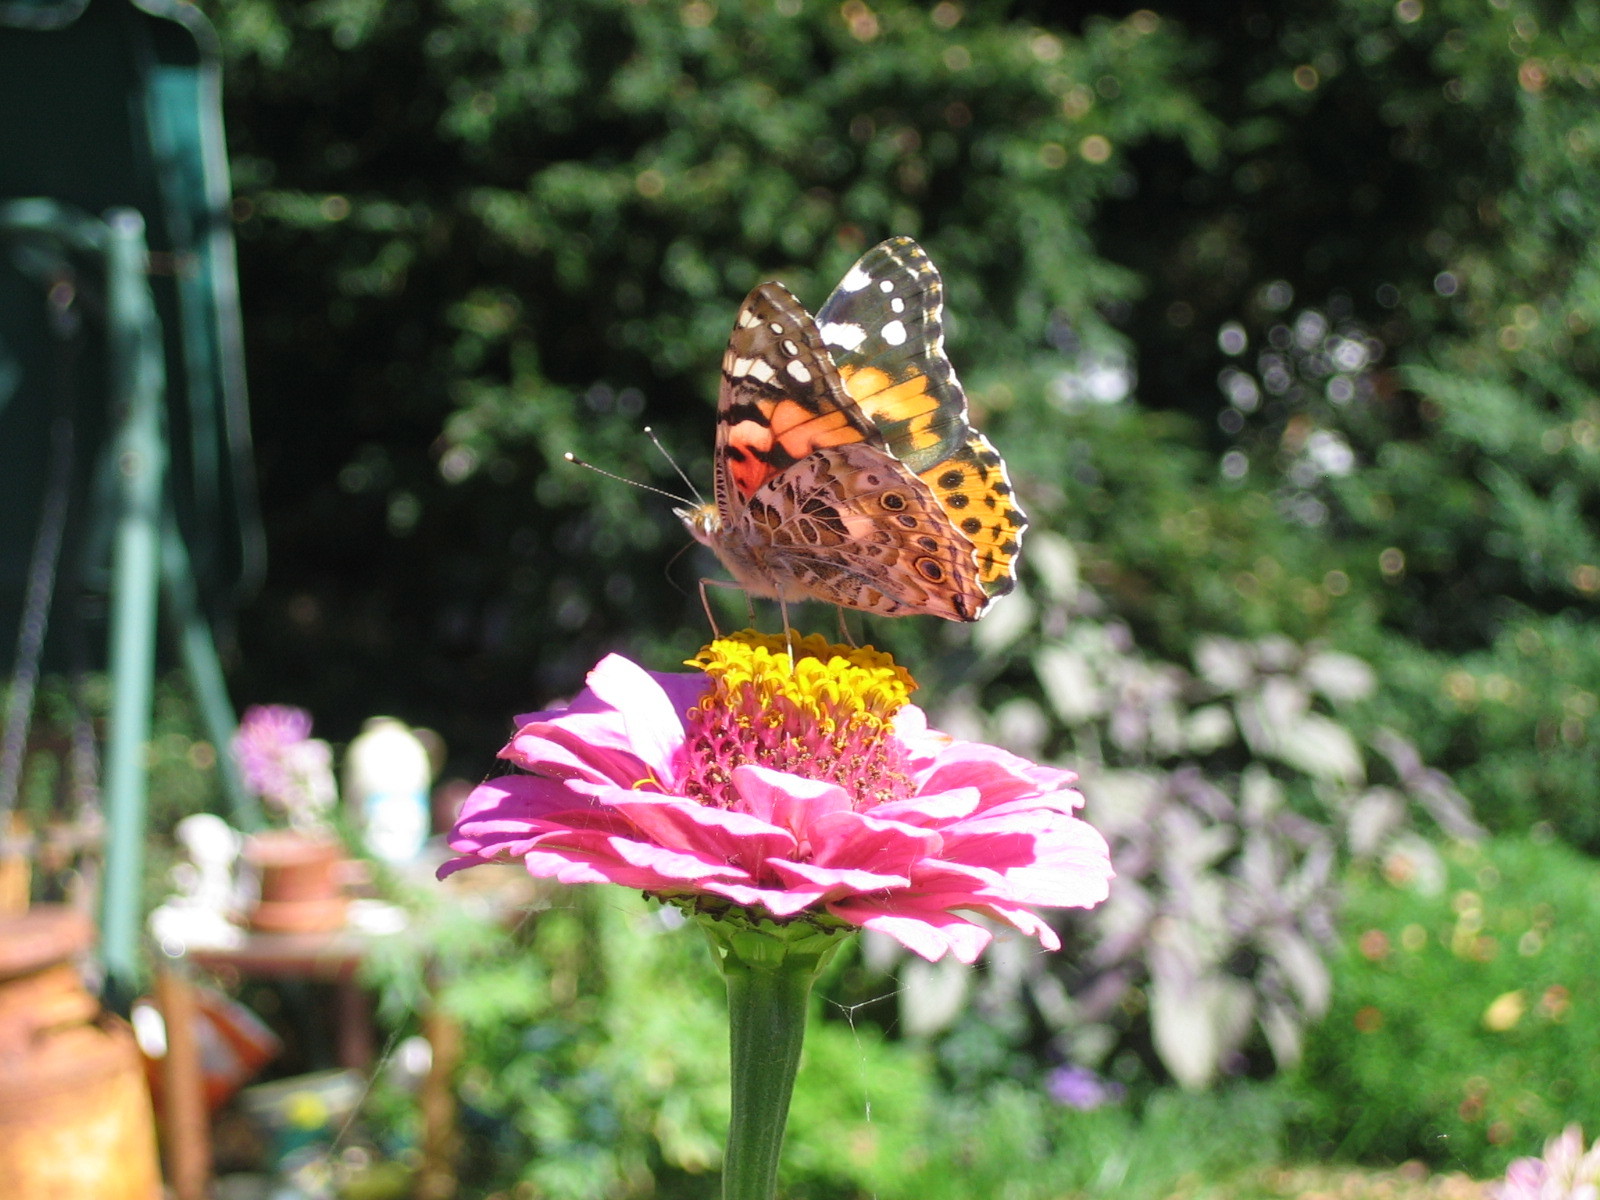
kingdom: Animalia
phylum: Arthropoda
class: Insecta
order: Lepidoptera
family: Nymphalidae
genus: Vanessa
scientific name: Vanessa cardui
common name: Painted lady
